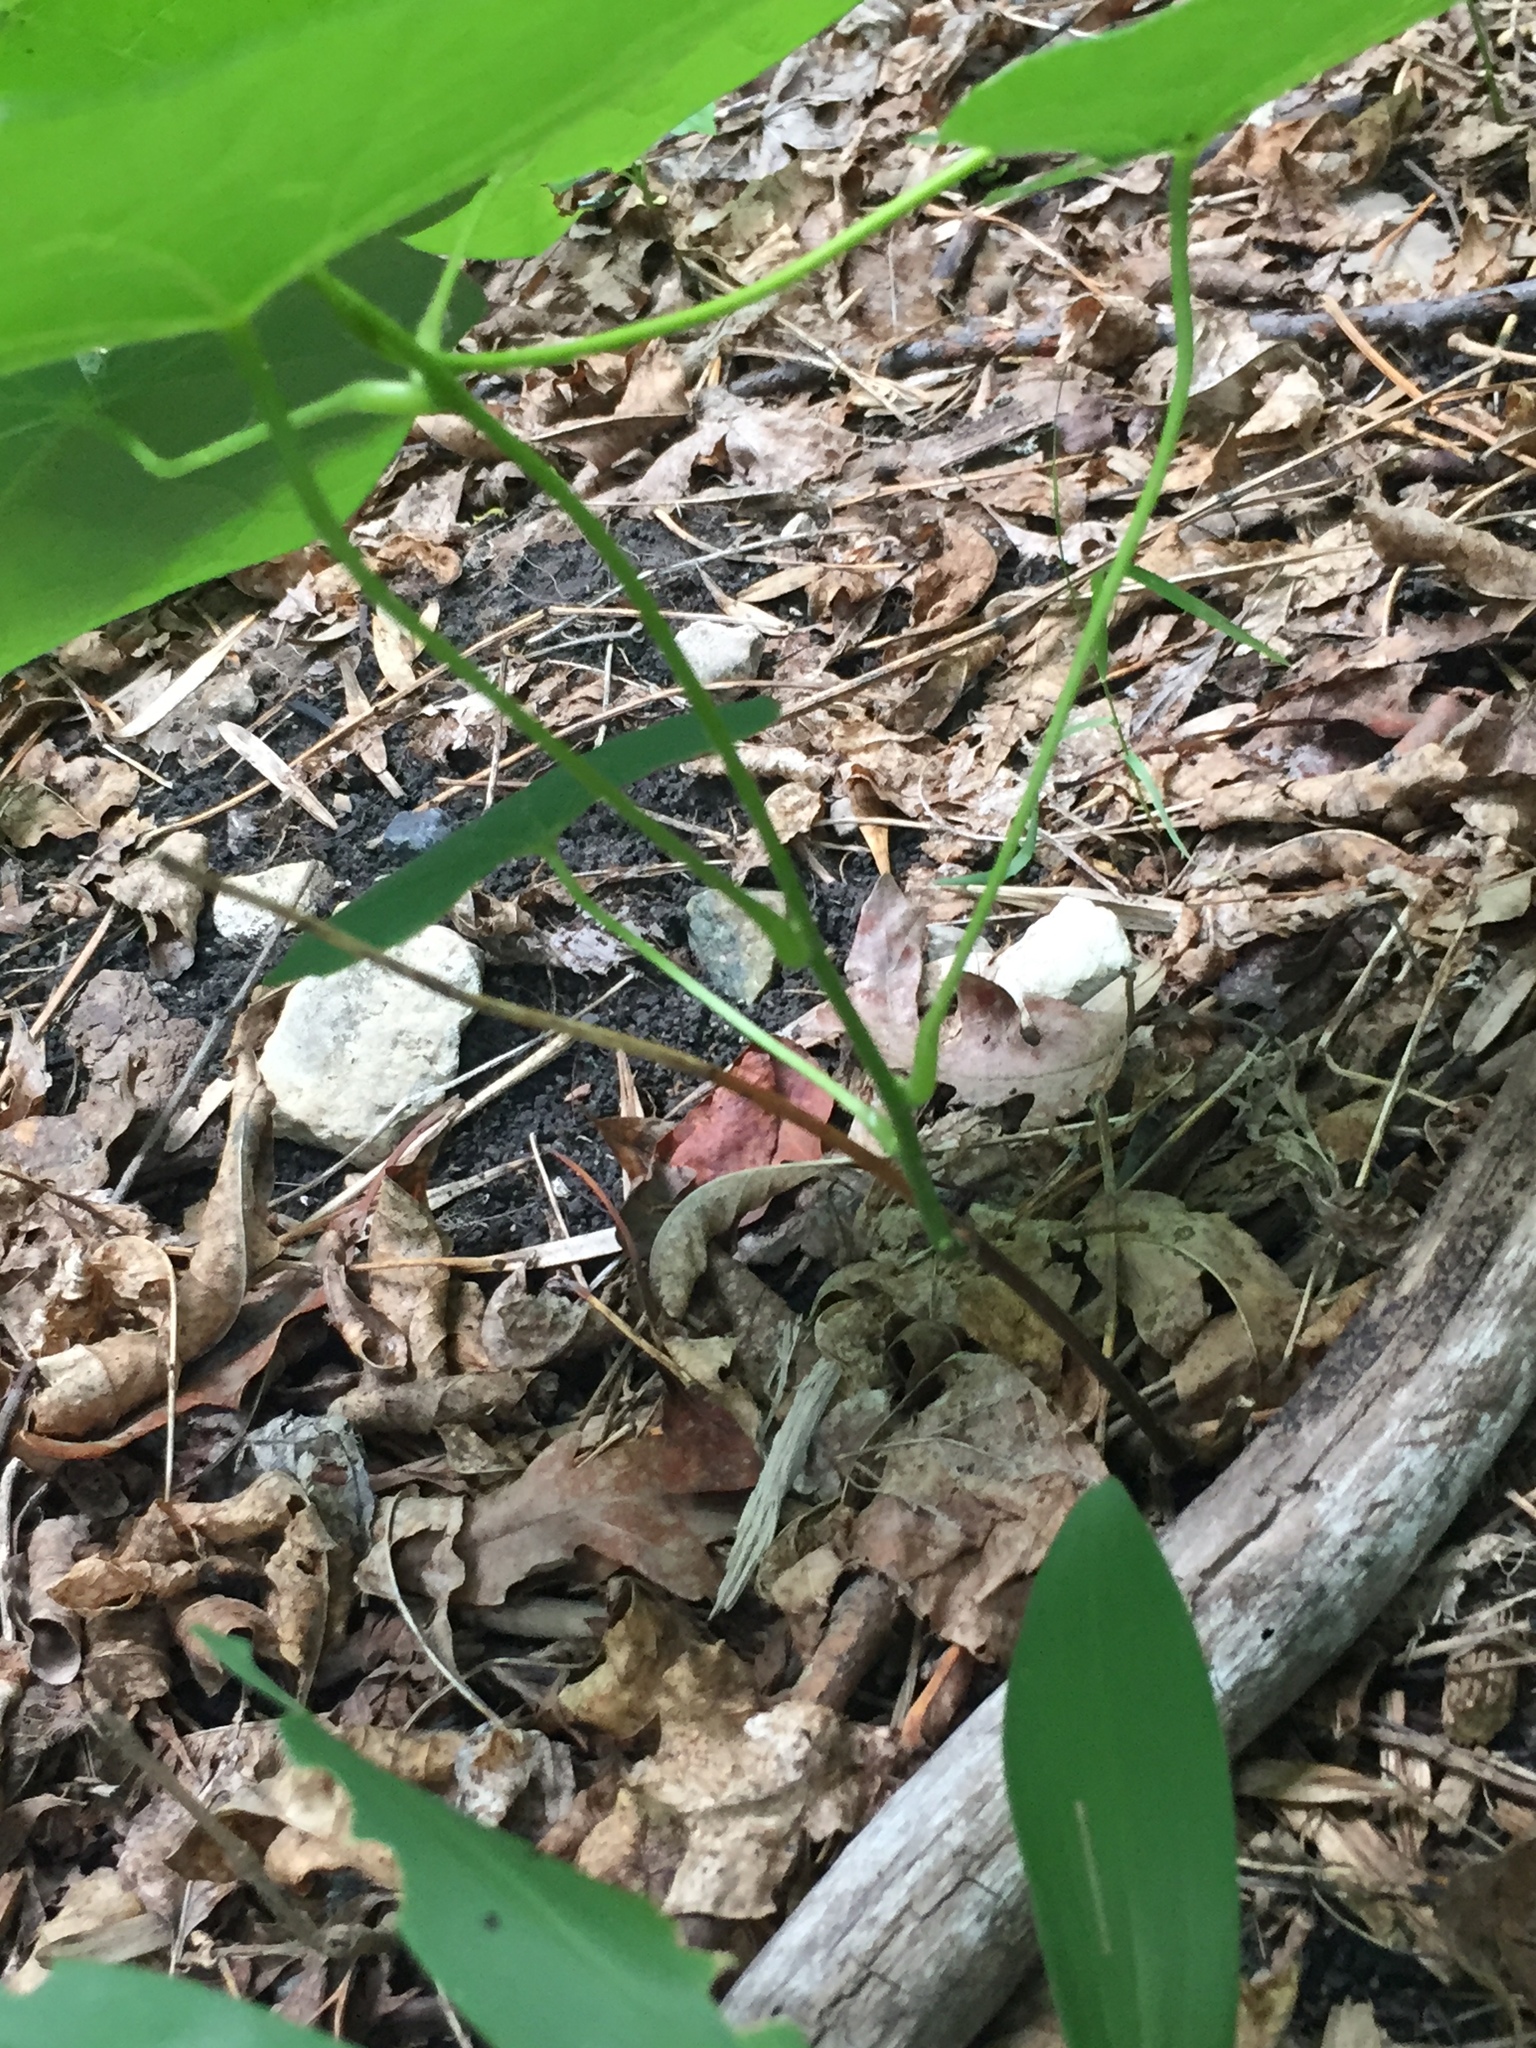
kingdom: Plantae
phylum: Tracheophyta
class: Magnoliopsida
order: Ranunculales
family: Menispermaceae
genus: Menispermum
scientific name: Menispermum canadense
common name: Moonseed
